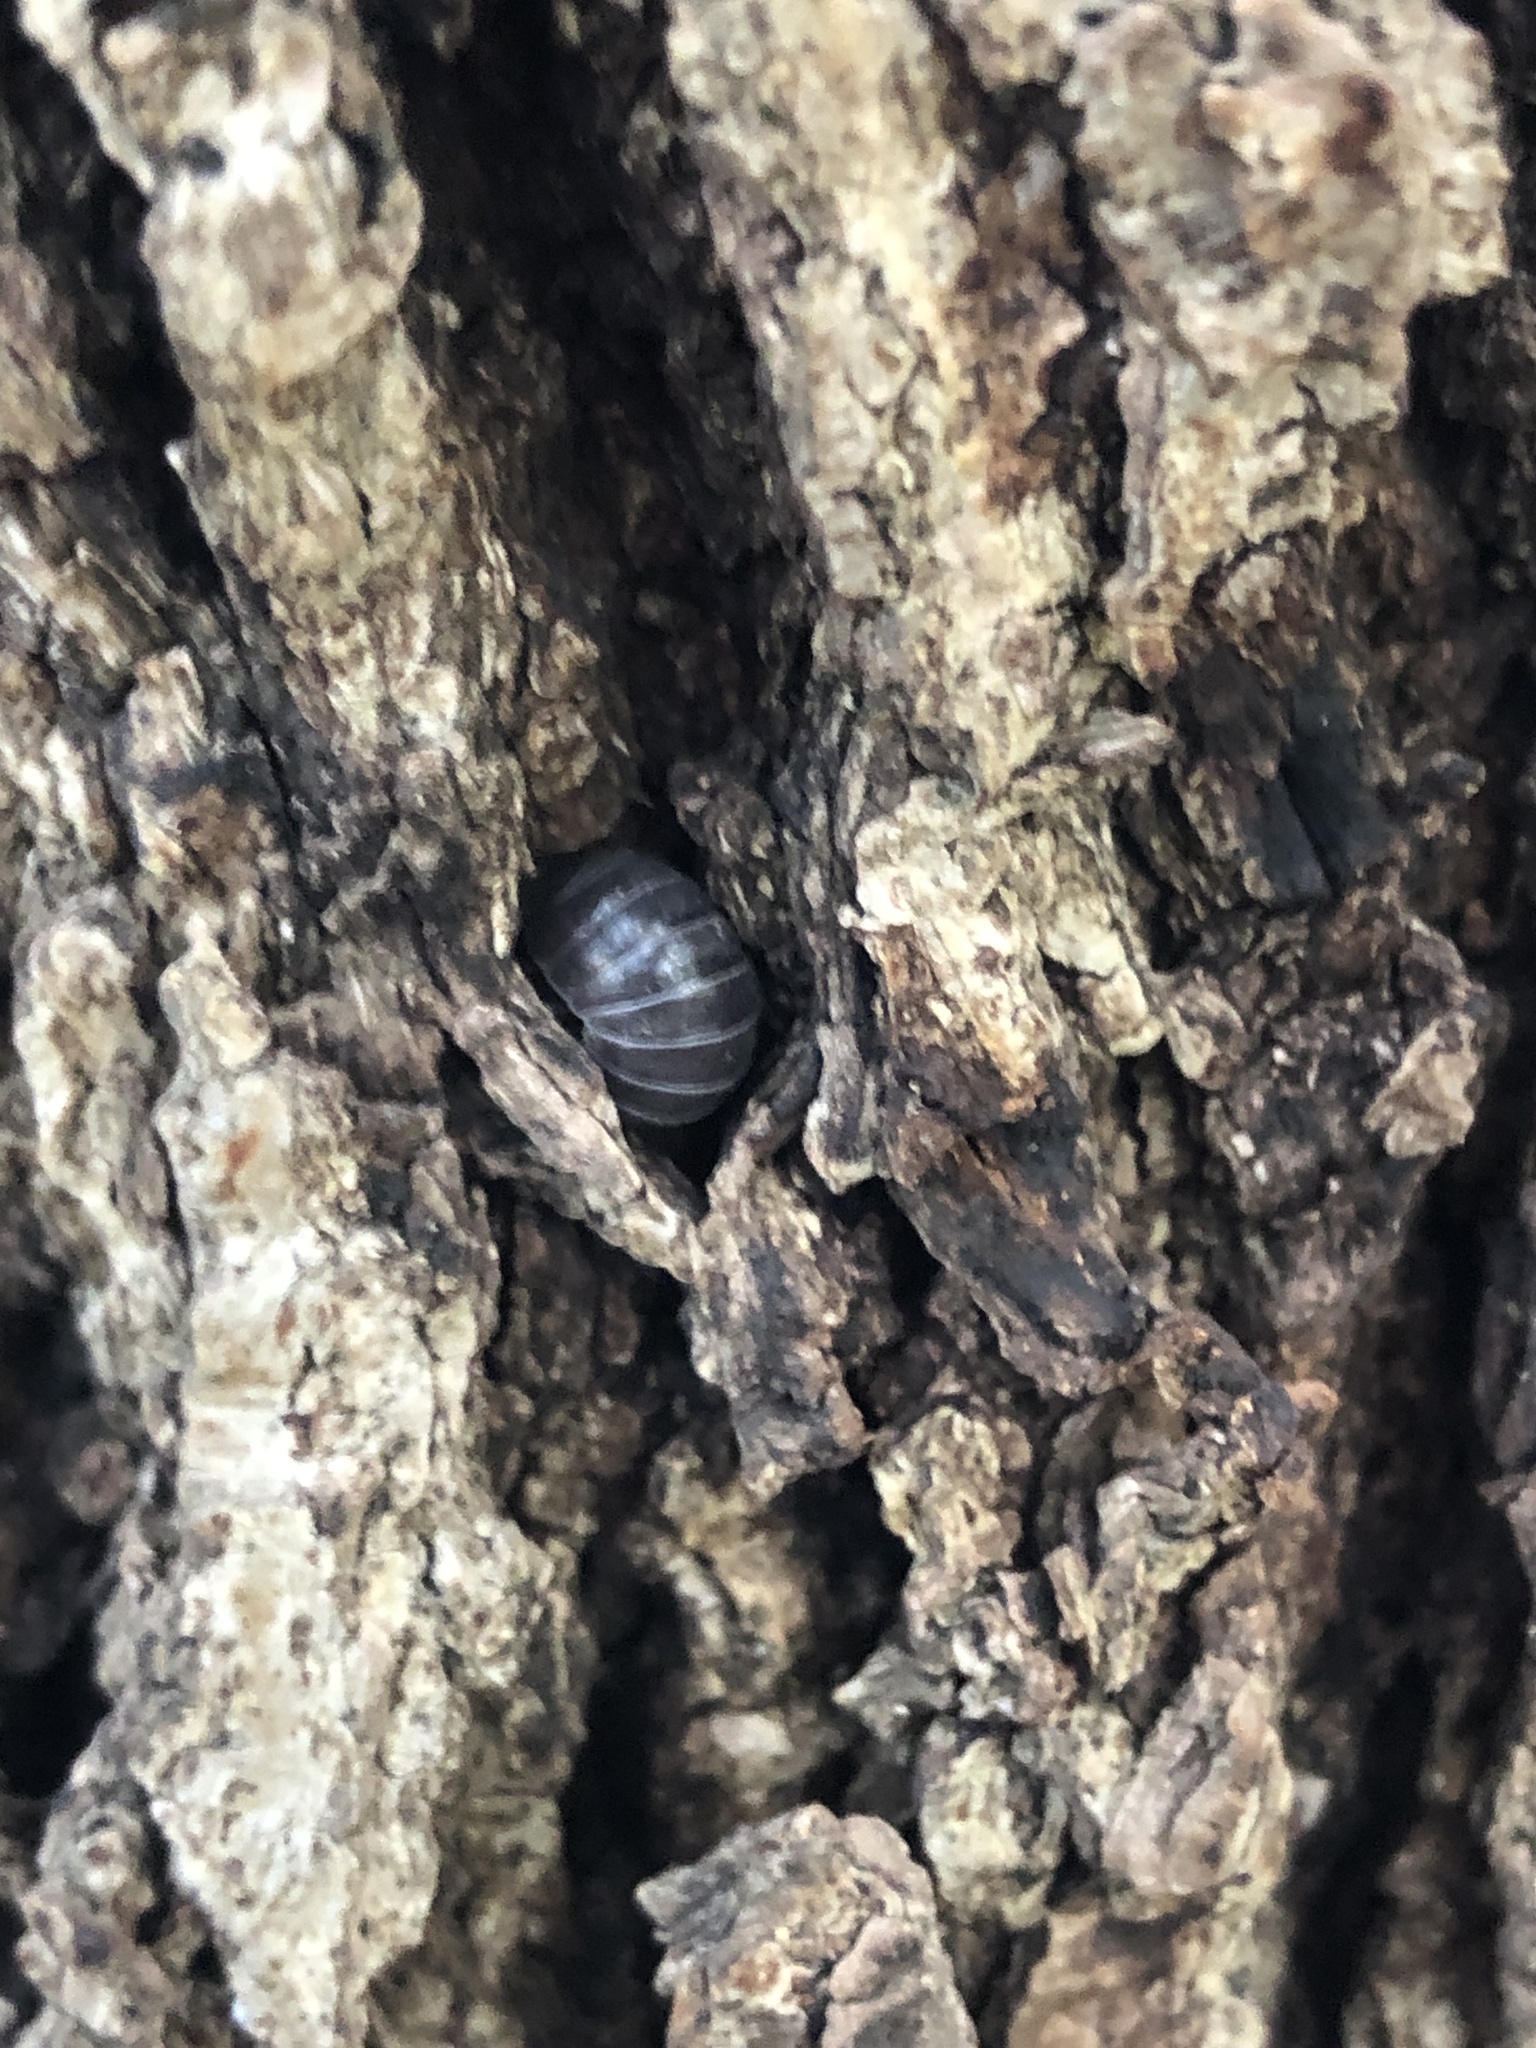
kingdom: Animalia
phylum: Arthropoda
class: Malacostraca
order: Isopoda
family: Armadillidiidae
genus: Armadillidium
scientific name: Armadillidium vulgare
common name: Common pill woodlouse
